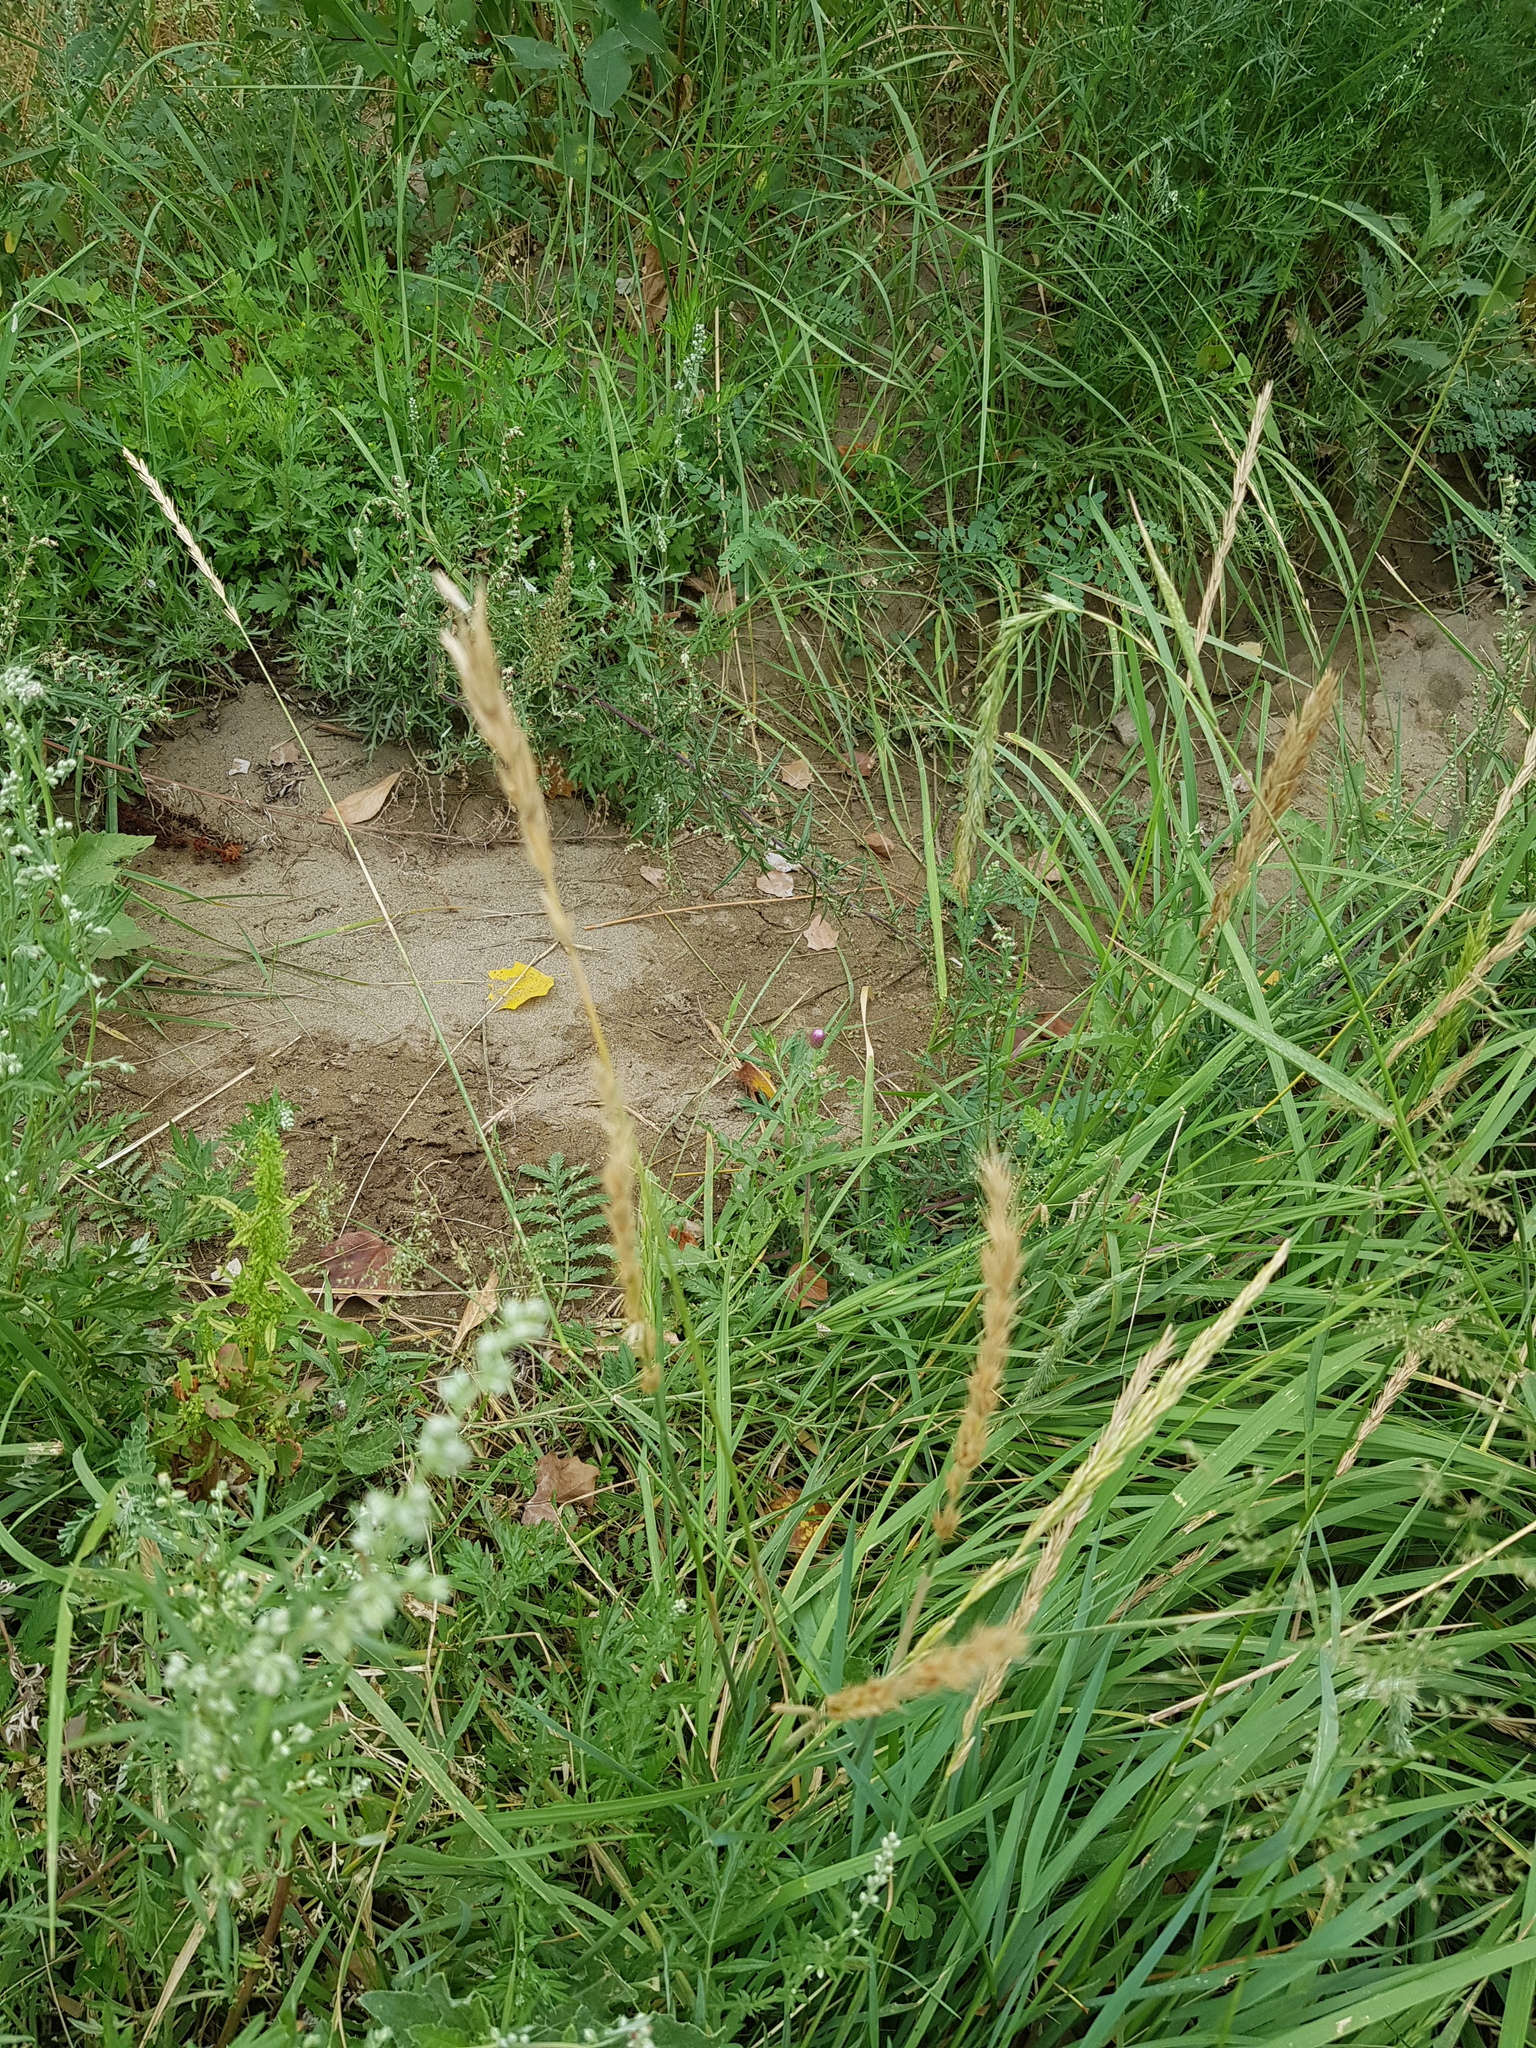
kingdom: Plantae
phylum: Tracheophyta
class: Liliopsida
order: Poales
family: Poaceae
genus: Elymus
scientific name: Elymus repens
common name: Quackgrass
